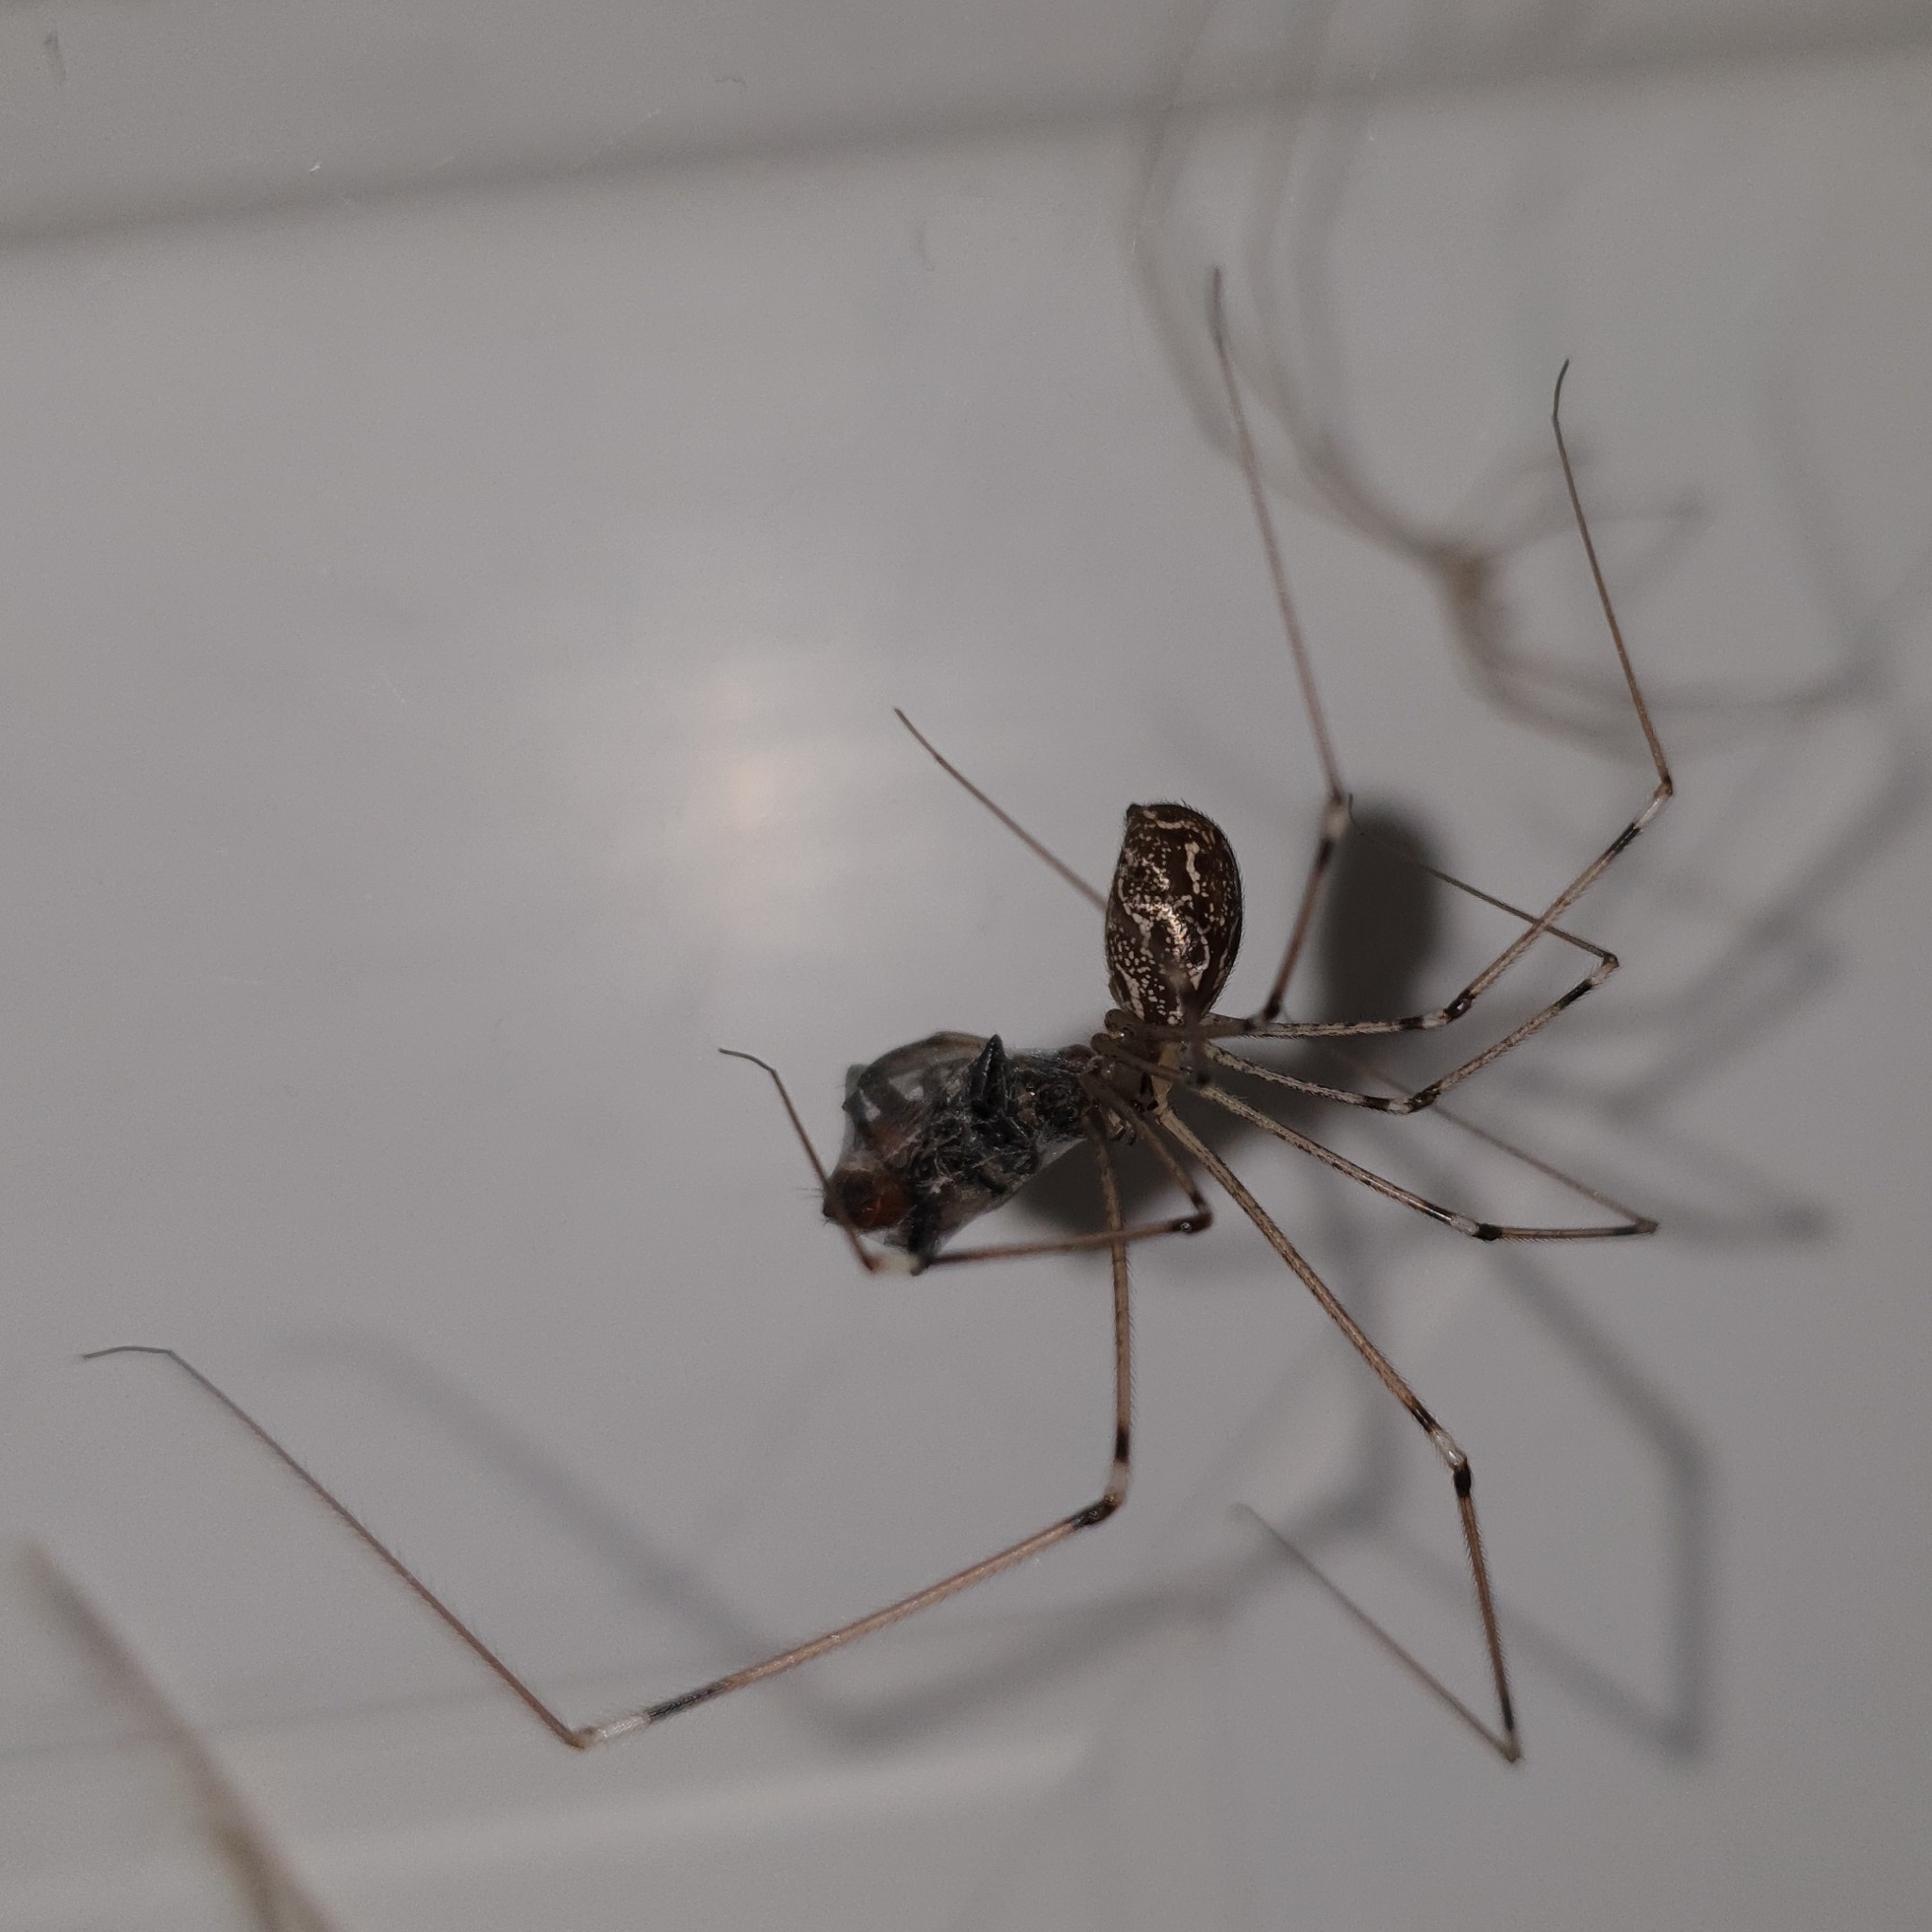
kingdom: Animalia
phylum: Arthropoda
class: Arachnida
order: Araneae
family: Pholcidae
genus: Holocnemus
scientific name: Holocnemus pluchei
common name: Marbled cellar spider
